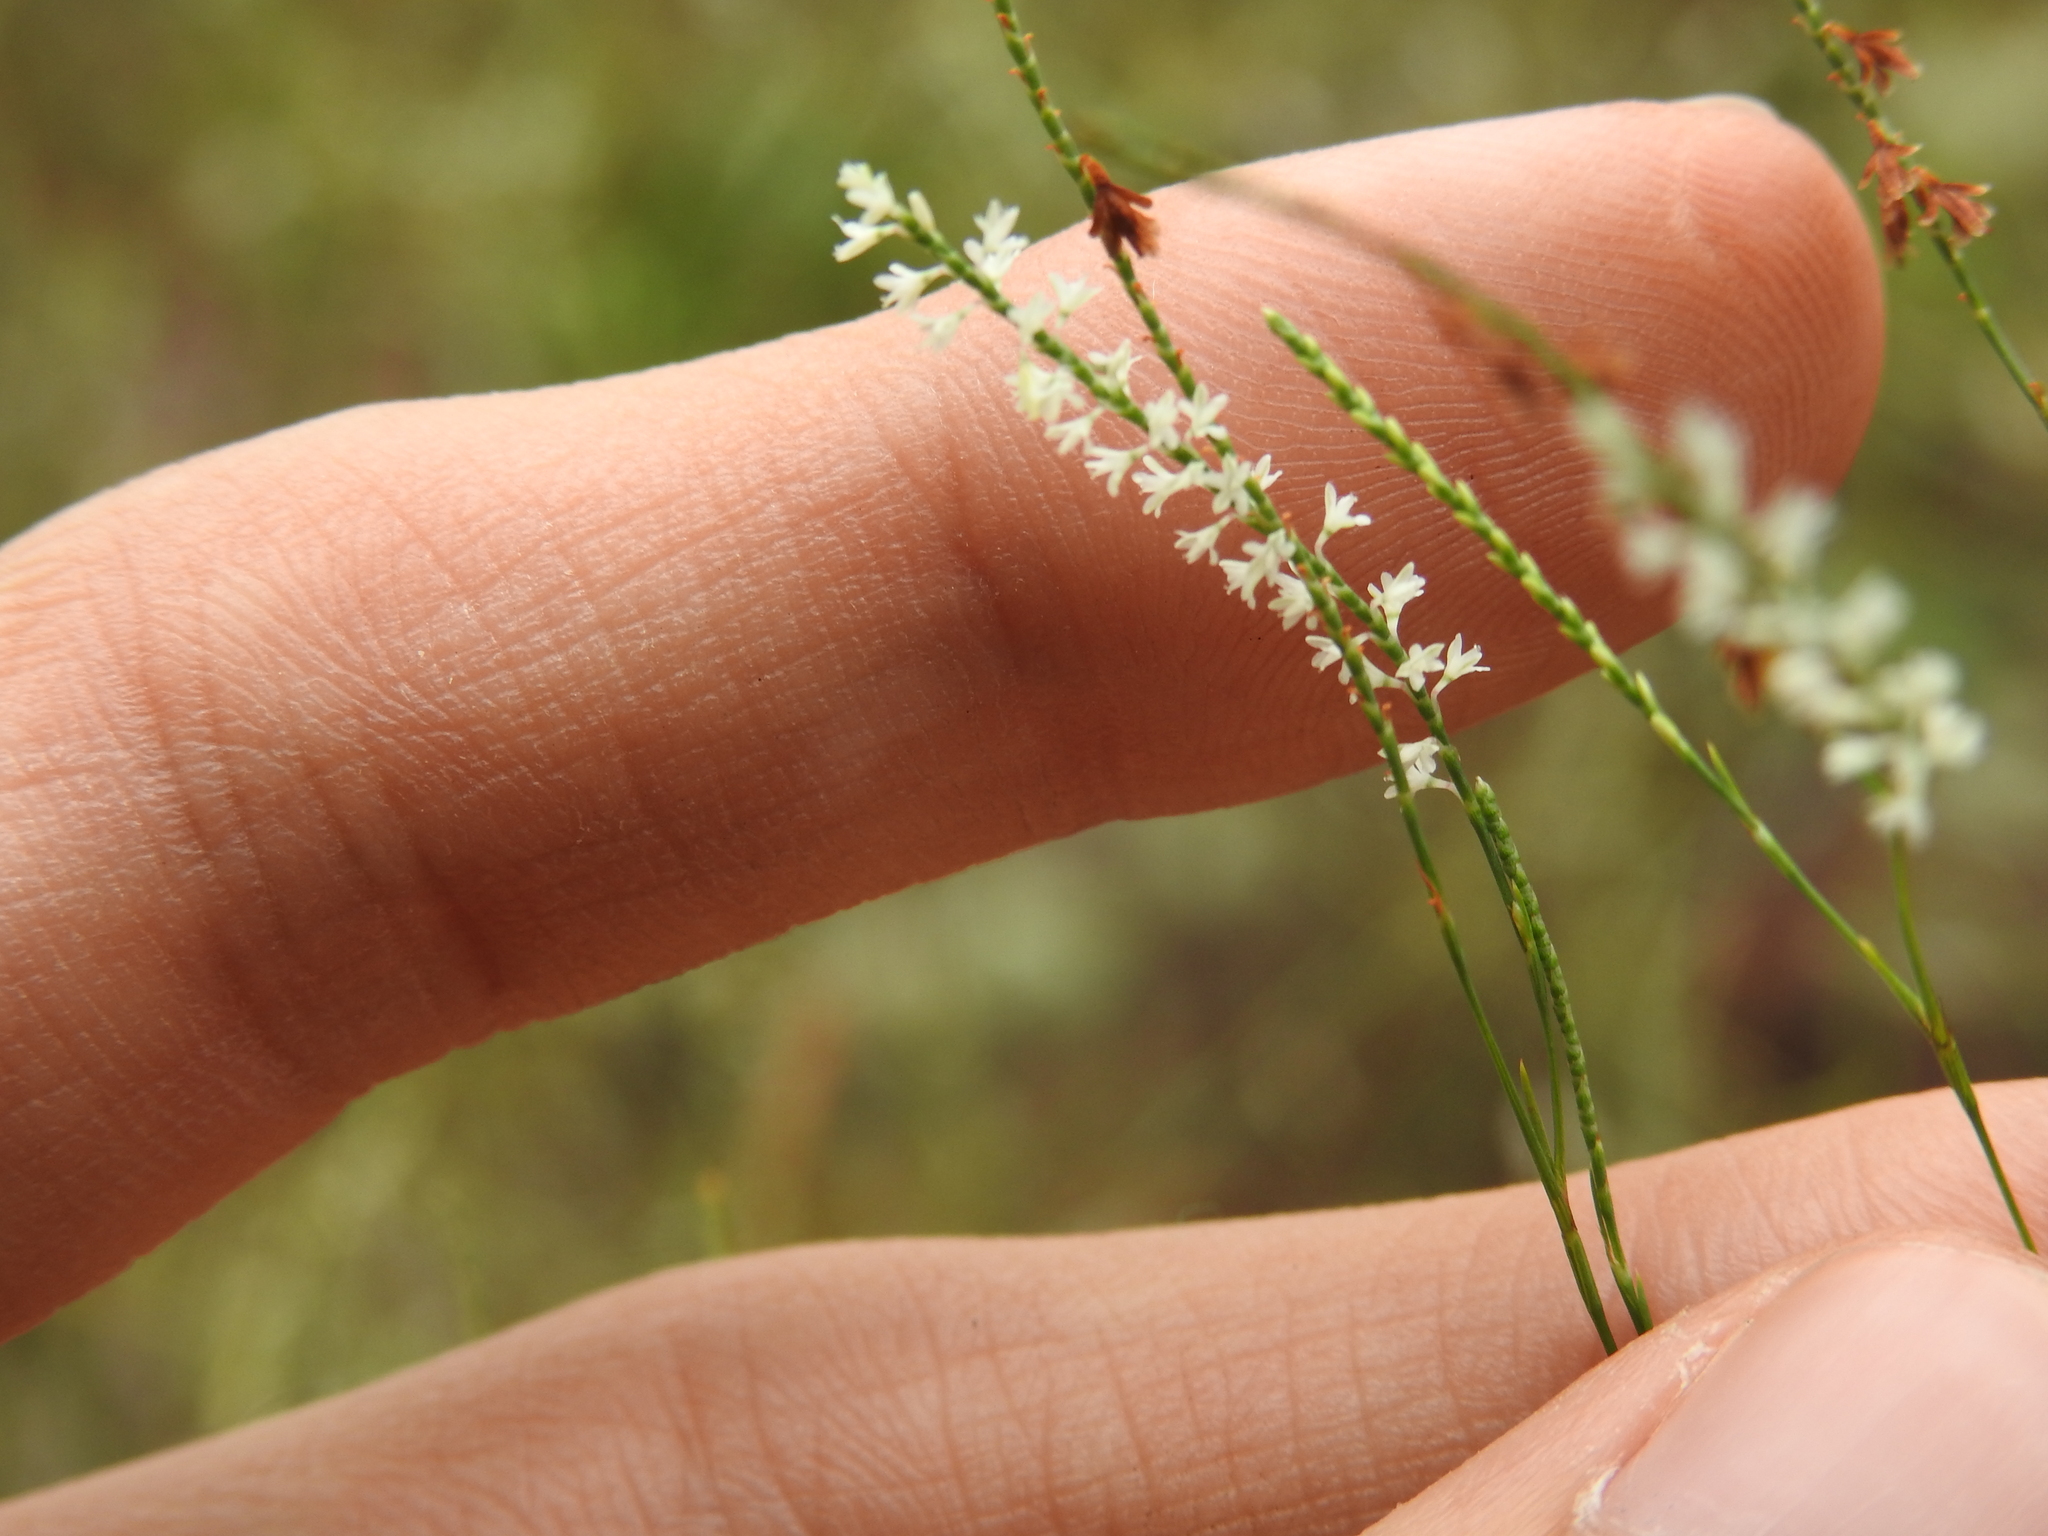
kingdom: Plantae
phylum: Tracheophyta
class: Magnoliopsida
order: Caryophyllales
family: Polygonaceae
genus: Polygonella
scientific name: Polygonella gracilis
